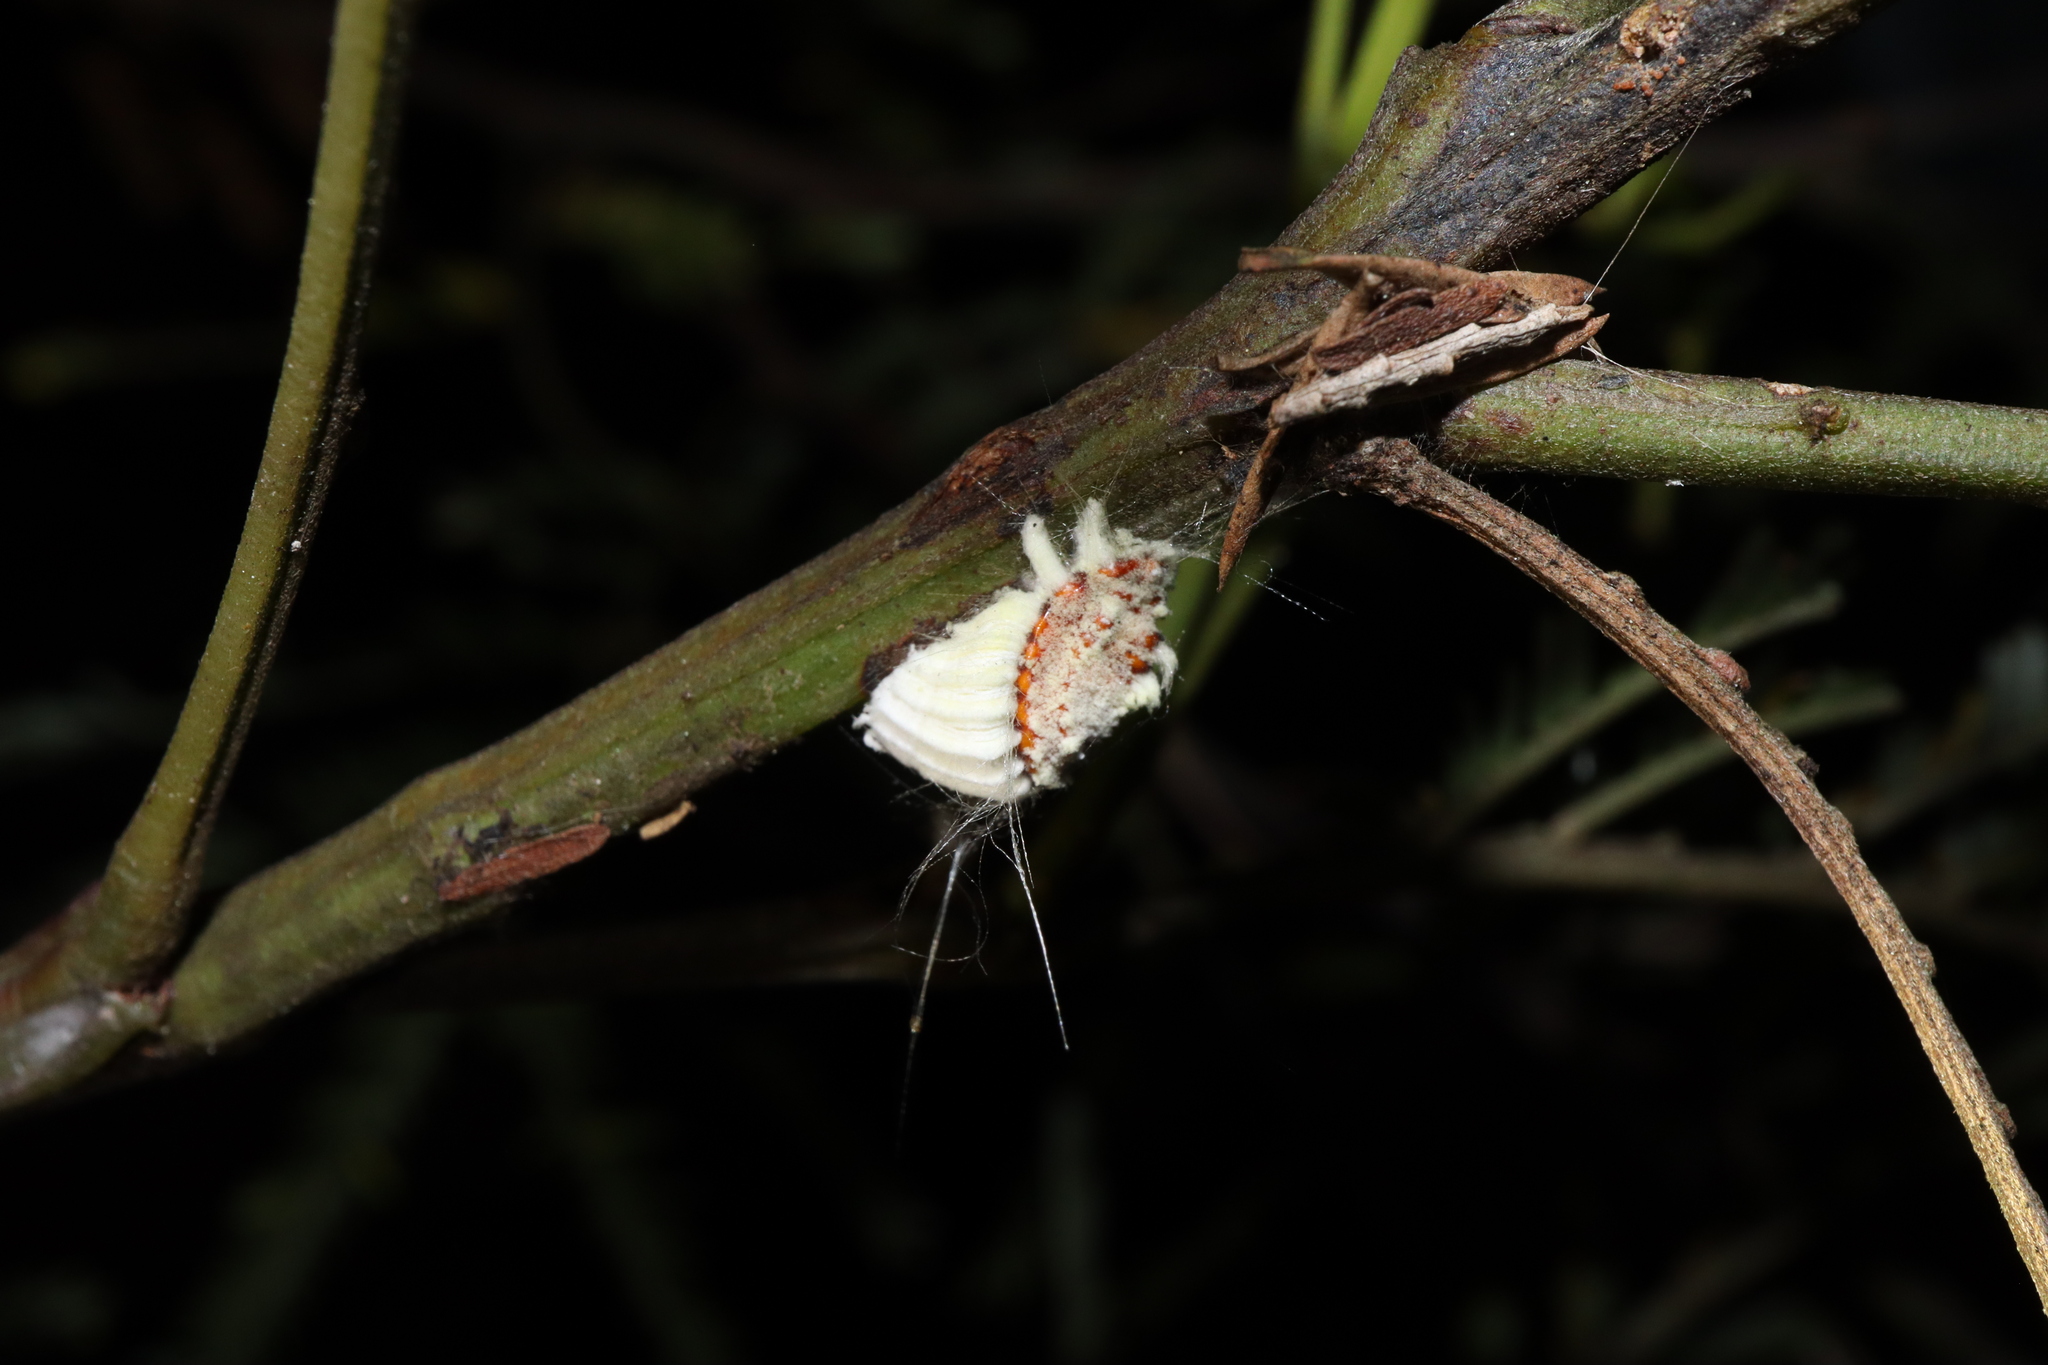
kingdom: Animalia
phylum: Arthropoda
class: Insecta
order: Hemiptera
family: Margarodidae
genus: Icerya
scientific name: Icerya purchasi
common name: Cottony cushion scale
